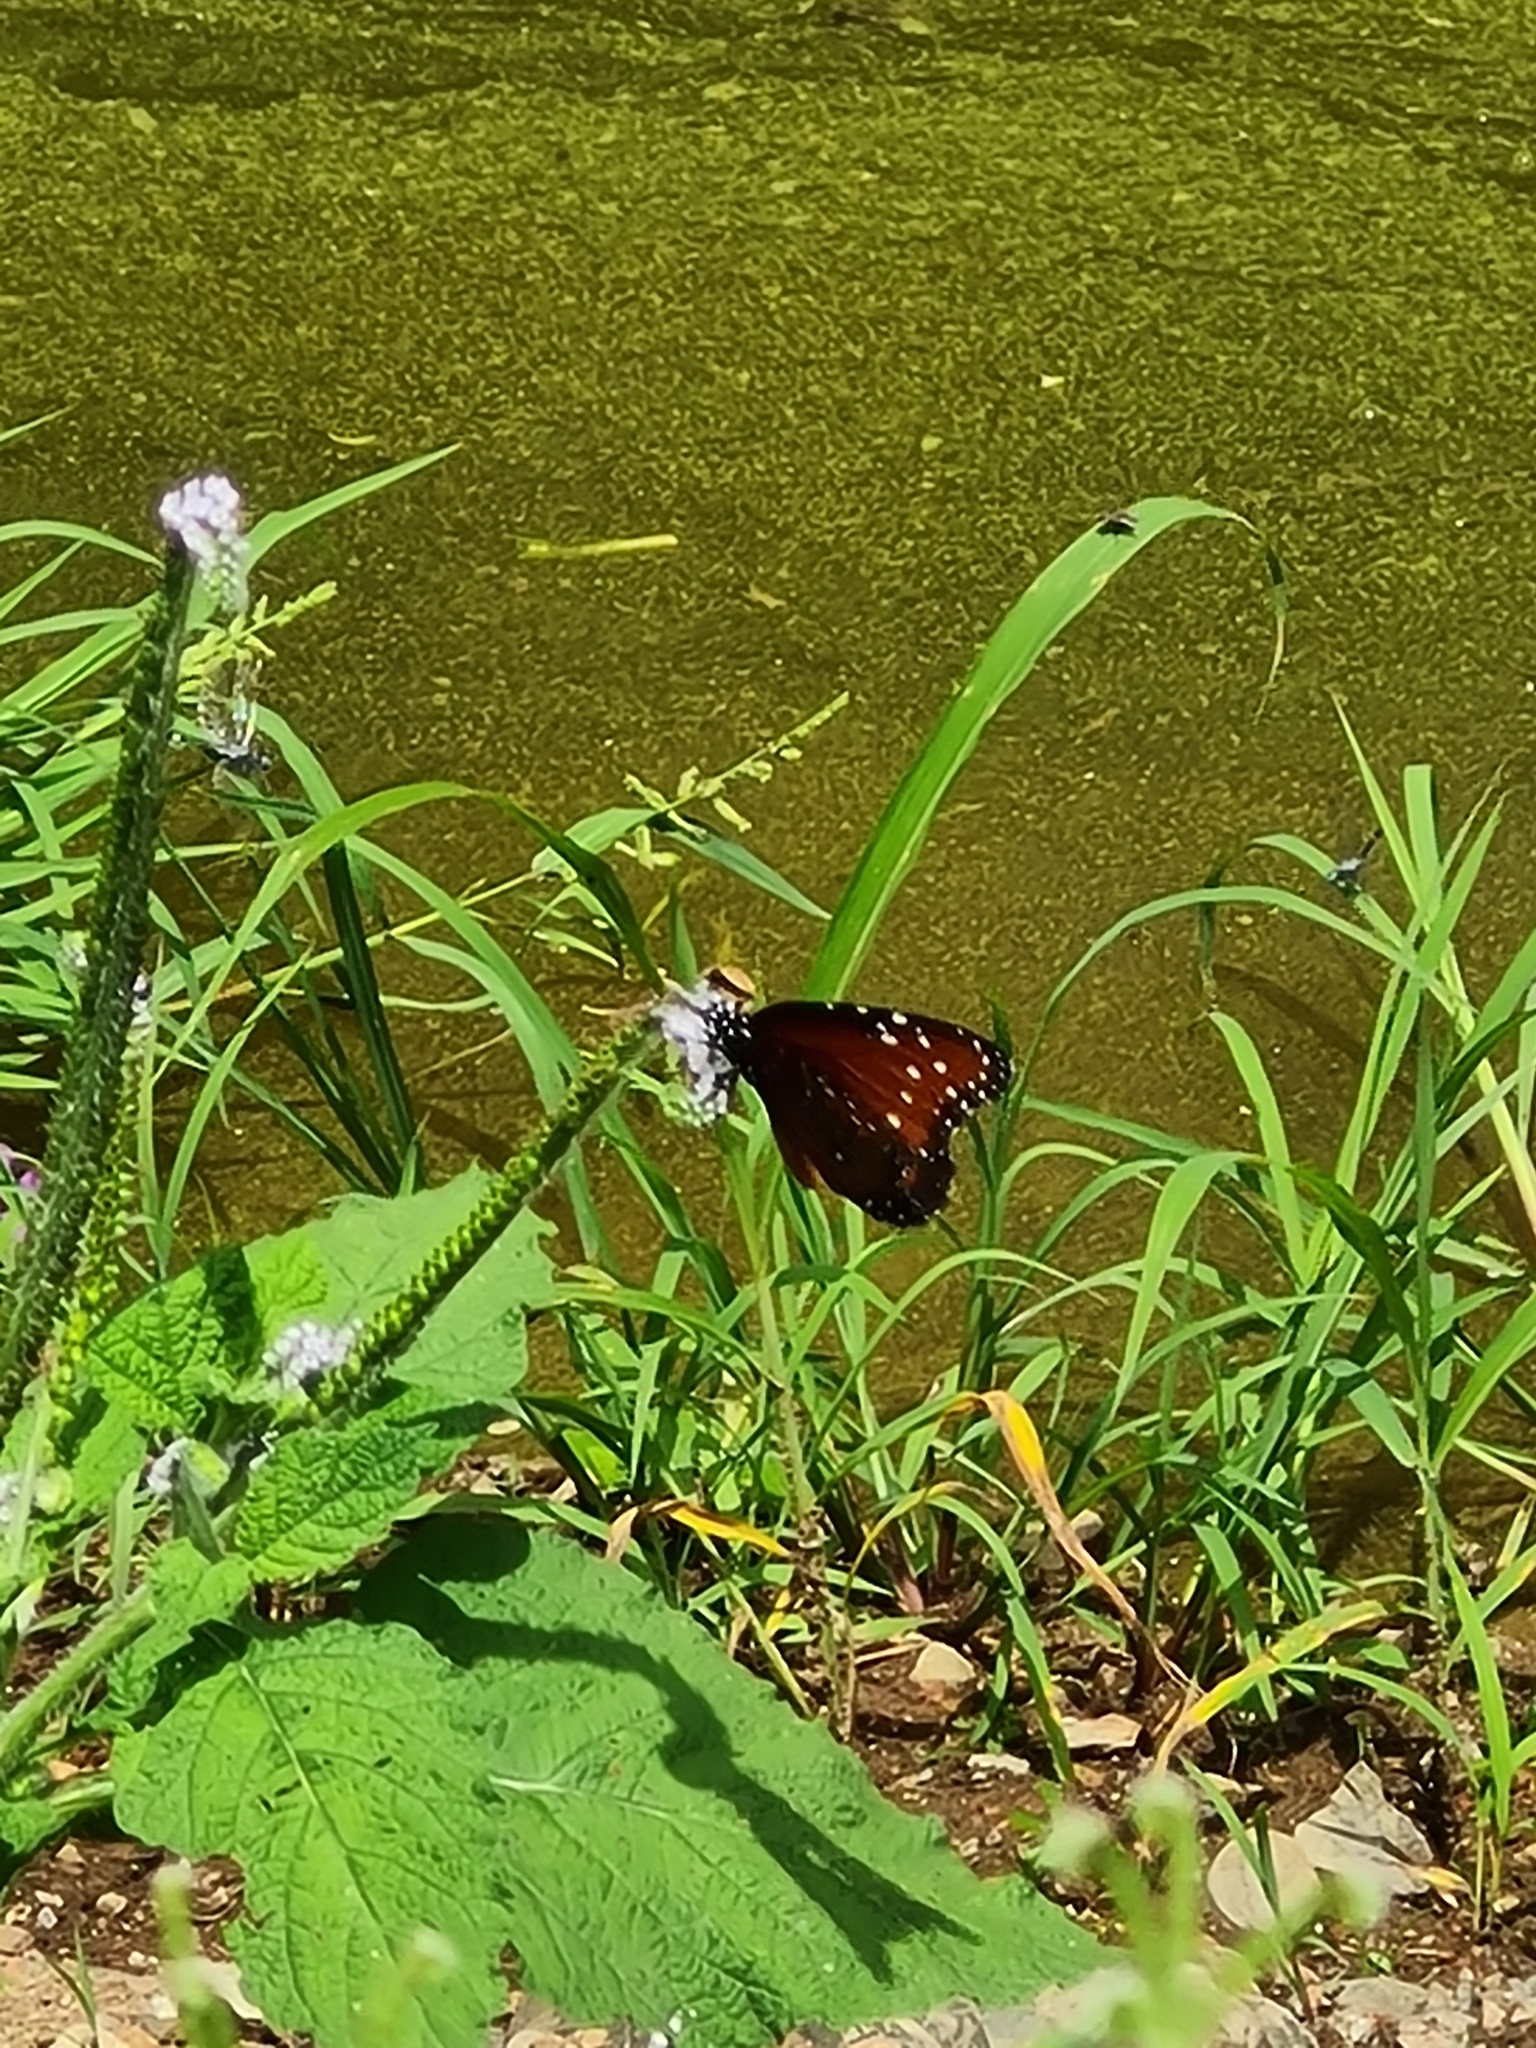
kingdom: Animalia
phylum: Arthropoda
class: Insecta
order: Lepidoptera
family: Nymphalidae
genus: Danaus
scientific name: Danaus gilippus
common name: Queen
